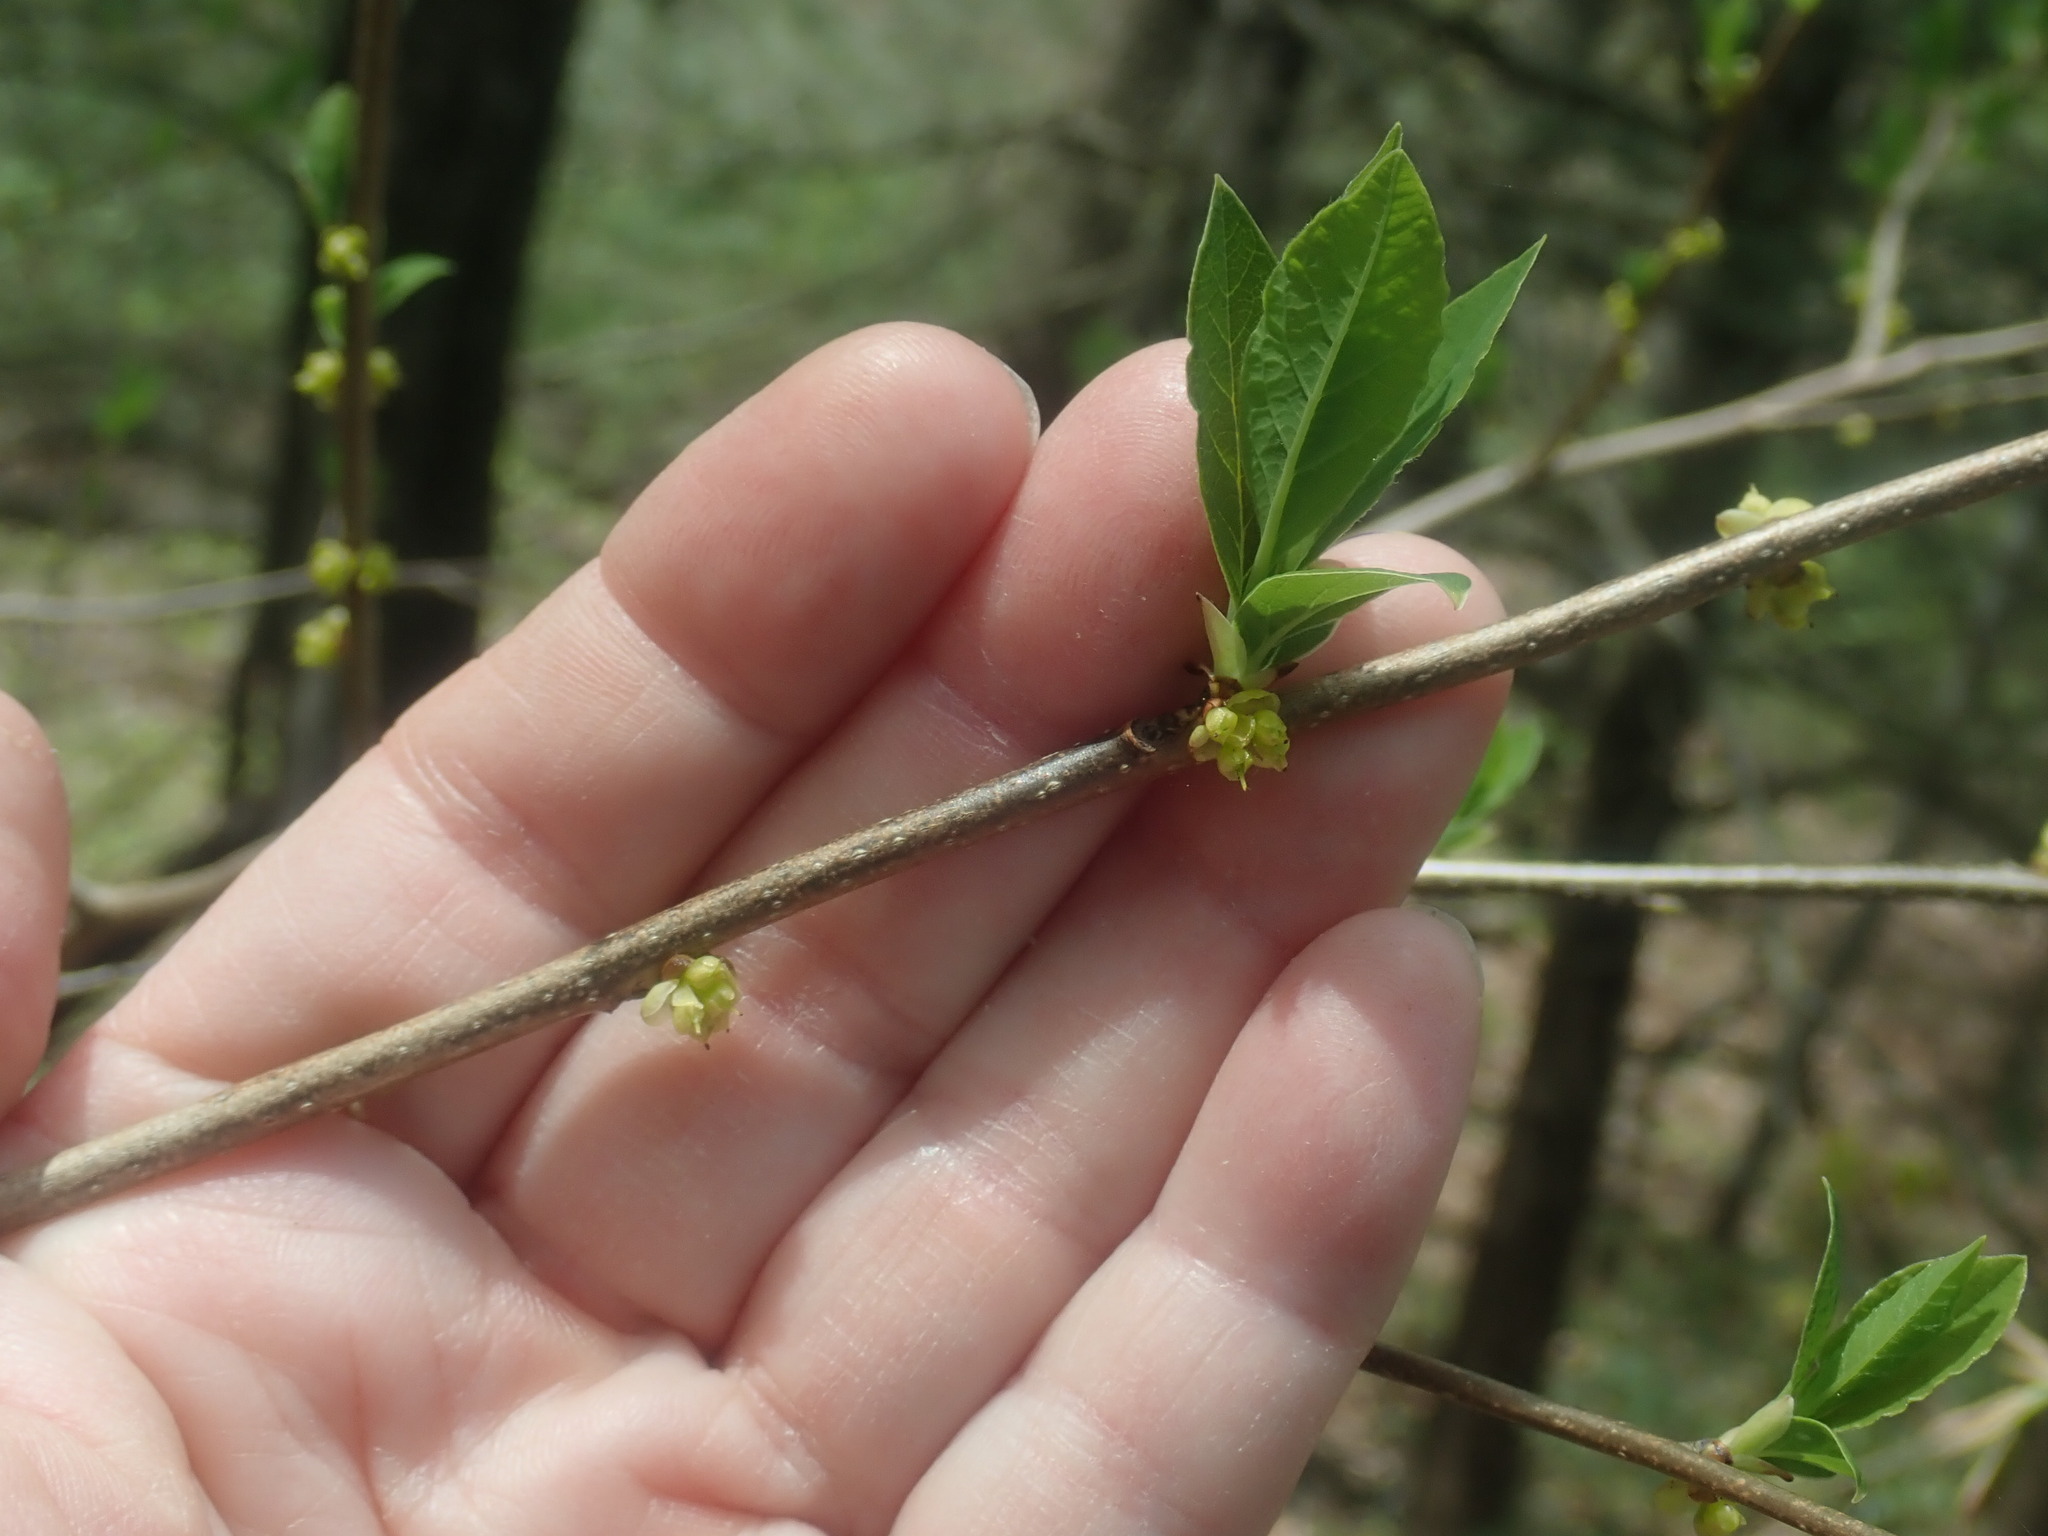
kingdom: Plantae
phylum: Tracheophyta
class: Magnoliopsida
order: Laurales
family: Lauraceae
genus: Lindera
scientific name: Lindera benzoin
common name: Spicebush
